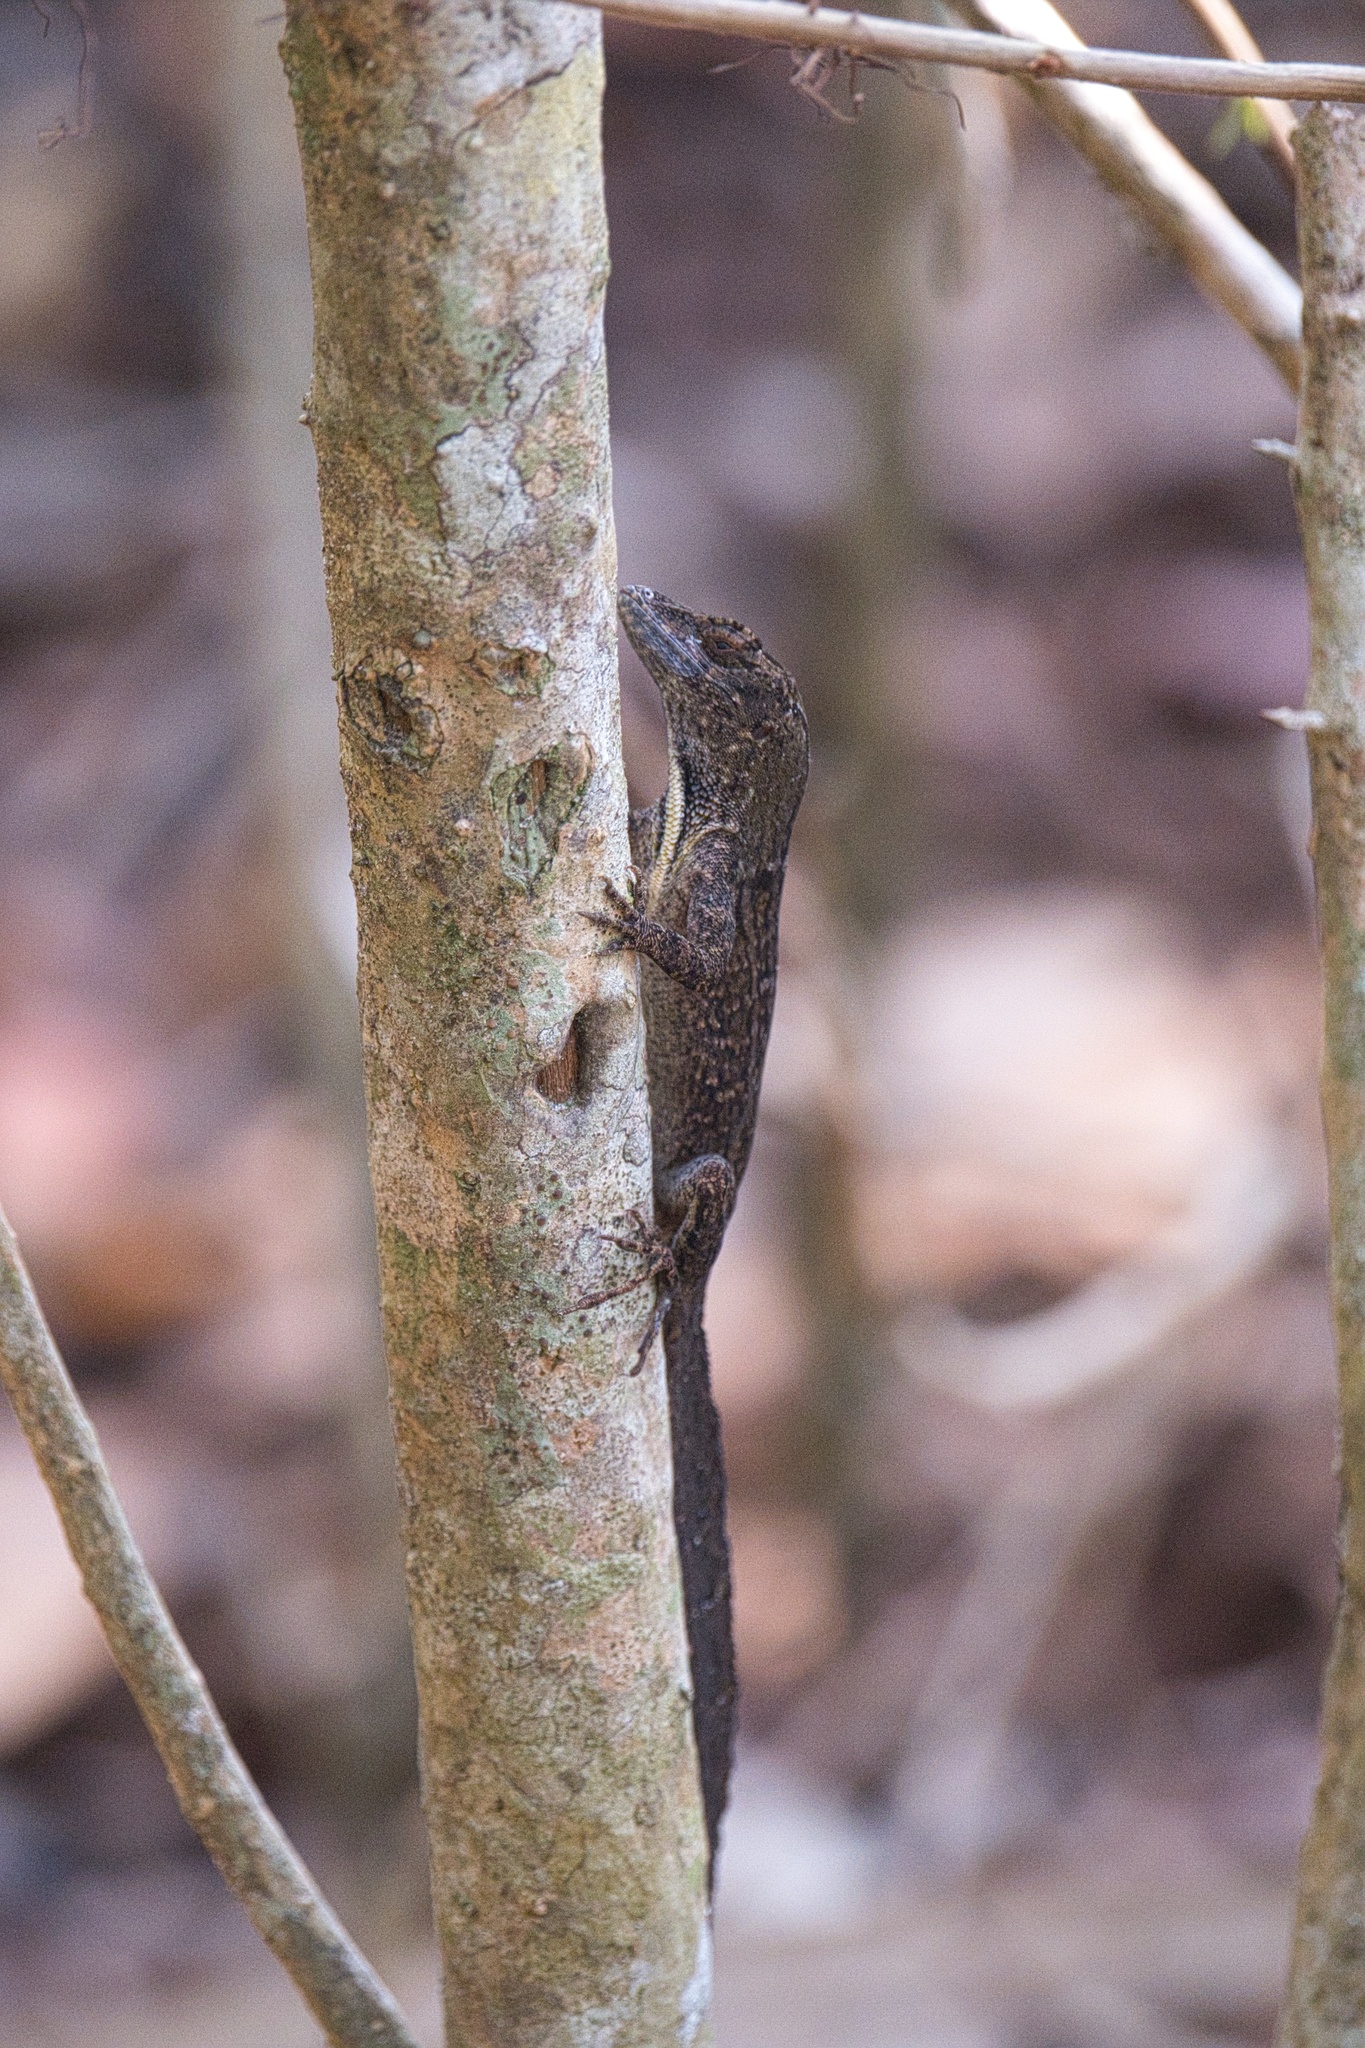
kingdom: Animalia
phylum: Chordata
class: Squamata
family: Dactyloidae
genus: Anolis
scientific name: Anolis sagrei
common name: Brown anole
